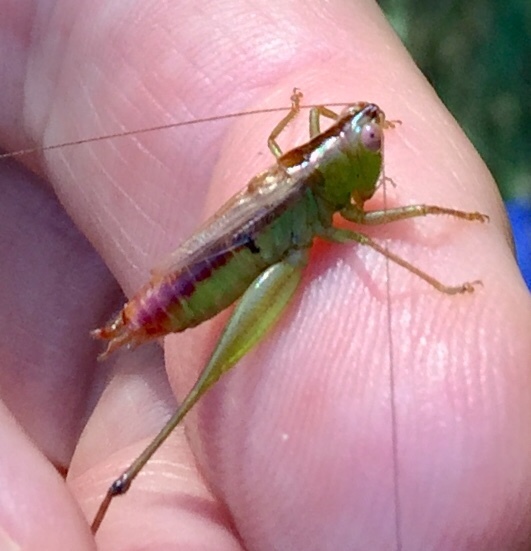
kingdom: Animalia
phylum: Arthropoda
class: Insecta
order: Orthoptera
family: Tettigoniidae
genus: Conocephalus
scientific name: Conocephalus brevipennis
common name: Short-winged meadow katydid
